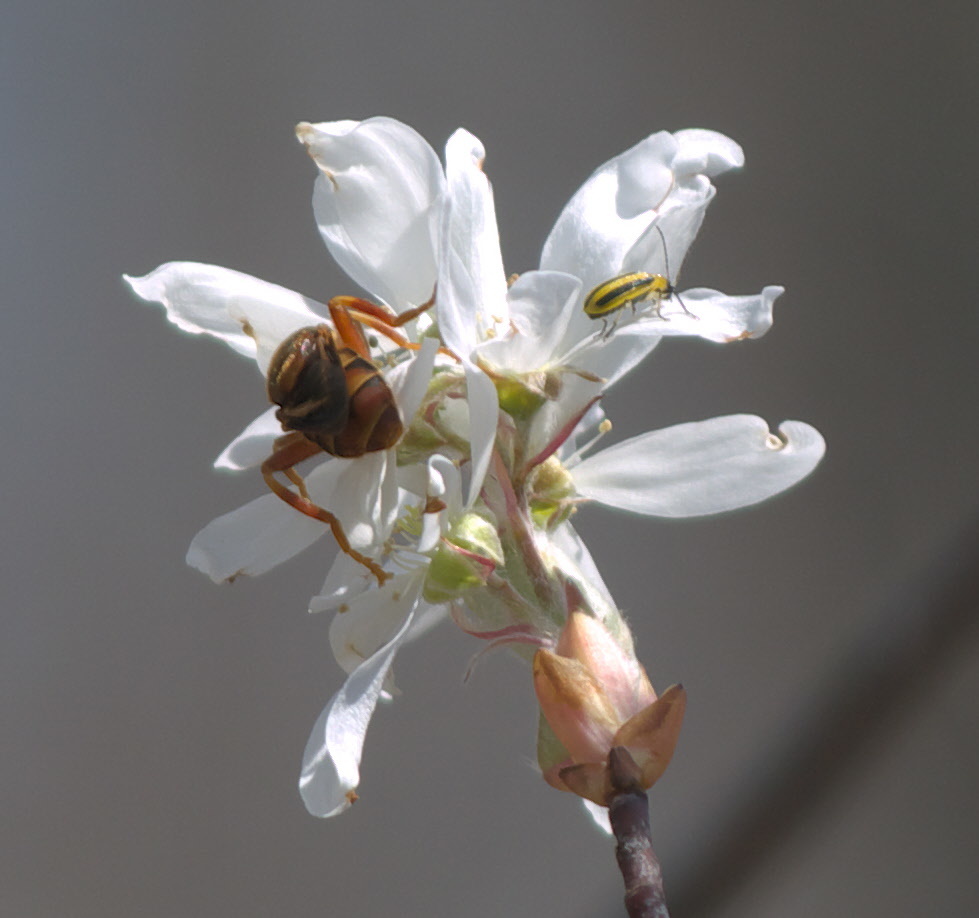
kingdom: Animalia
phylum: Arthropoda
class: Insecta
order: Coleoptera
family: Chrysomelidae
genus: Acalymma
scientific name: Acalymma vittatum
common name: Striped cucumber beetle
